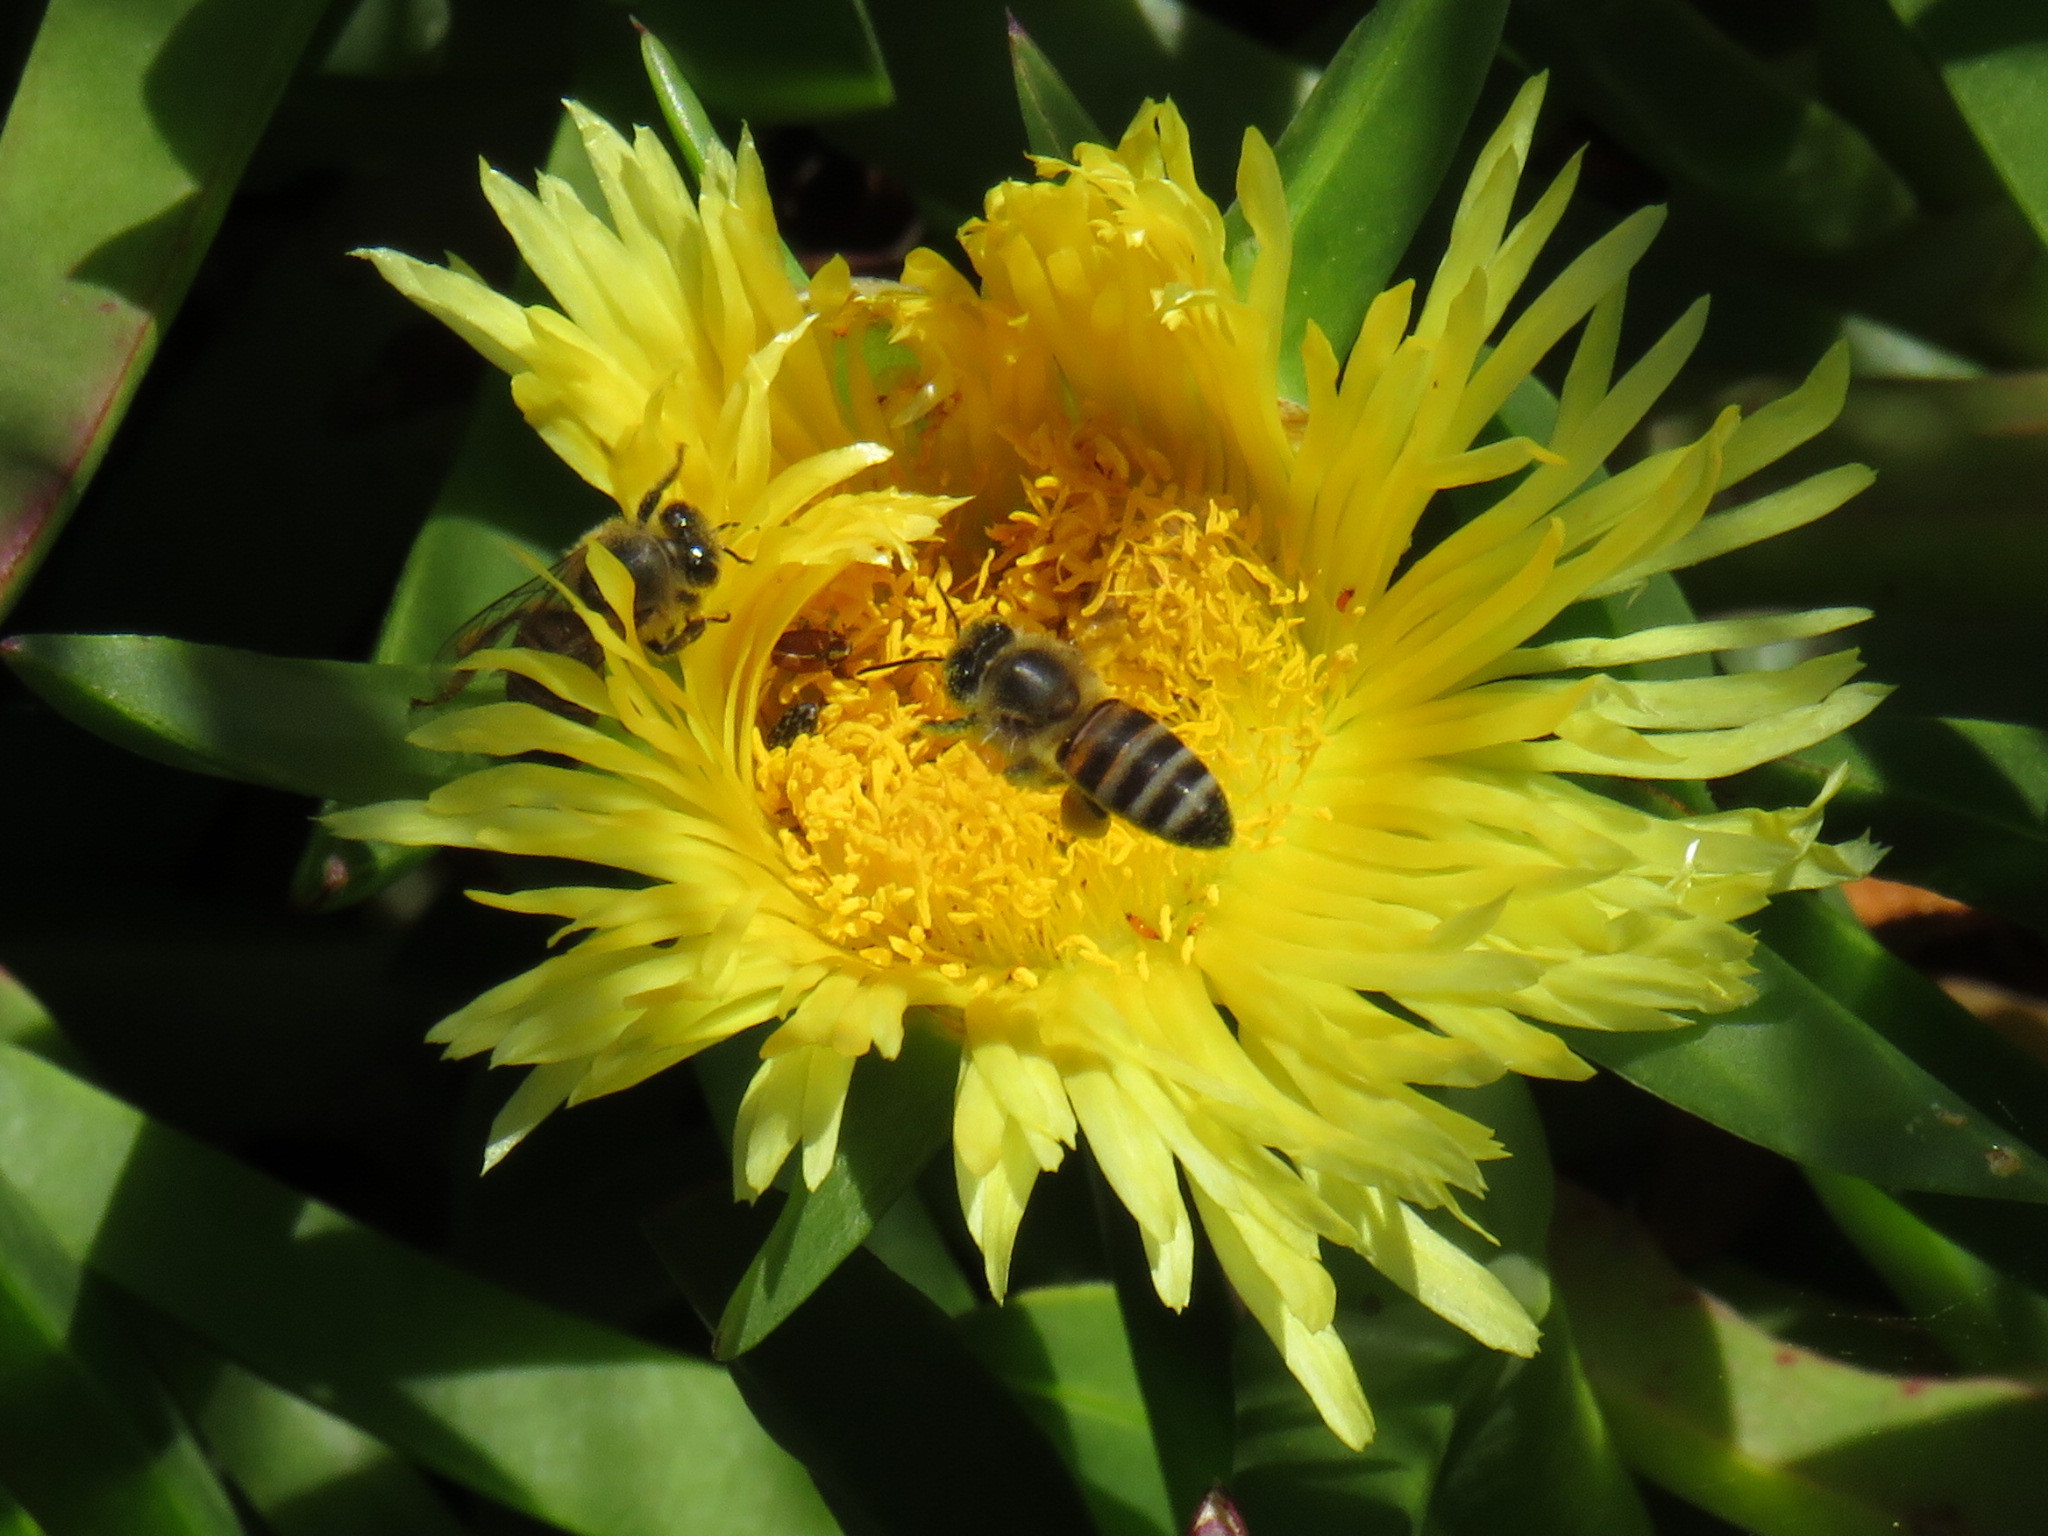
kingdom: Plantae
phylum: Tracheophyta
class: Magnoliopsida
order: Caryophyllales
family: Aizoaceae
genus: Carpobrotus
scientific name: Carpobrotus edulis
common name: Hottentot-fig
